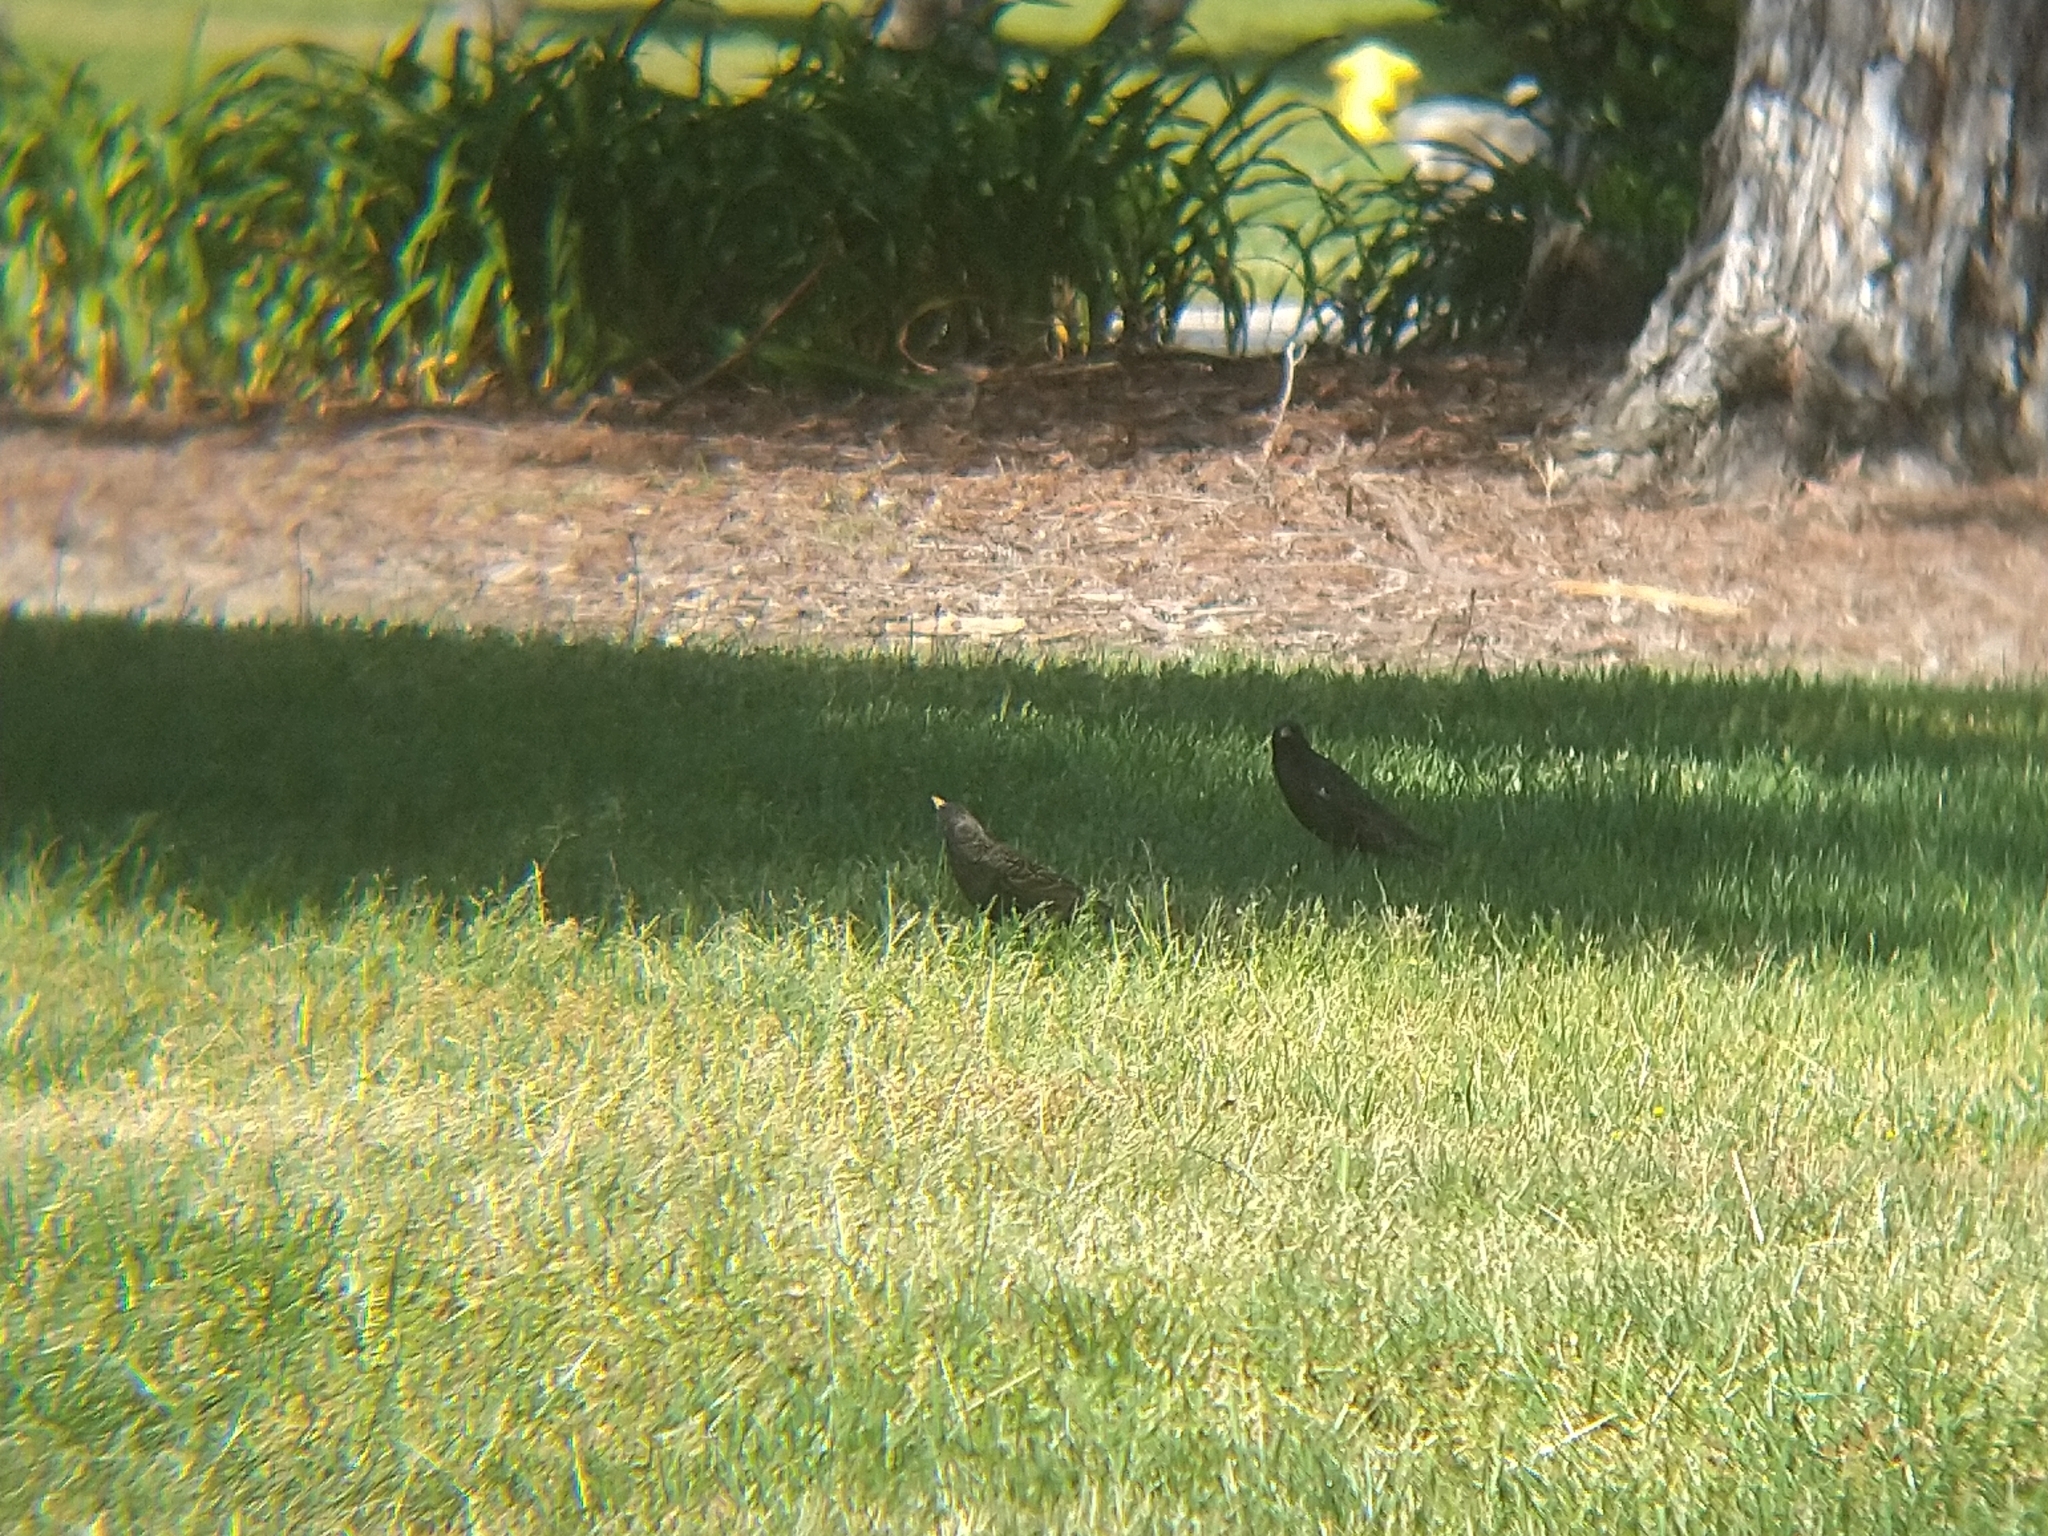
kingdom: Animalia
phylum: Chordata
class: Aves
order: Passeriformes
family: Sturnidae
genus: Sturnus
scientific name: Sturnus vulgaris
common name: Common starling
